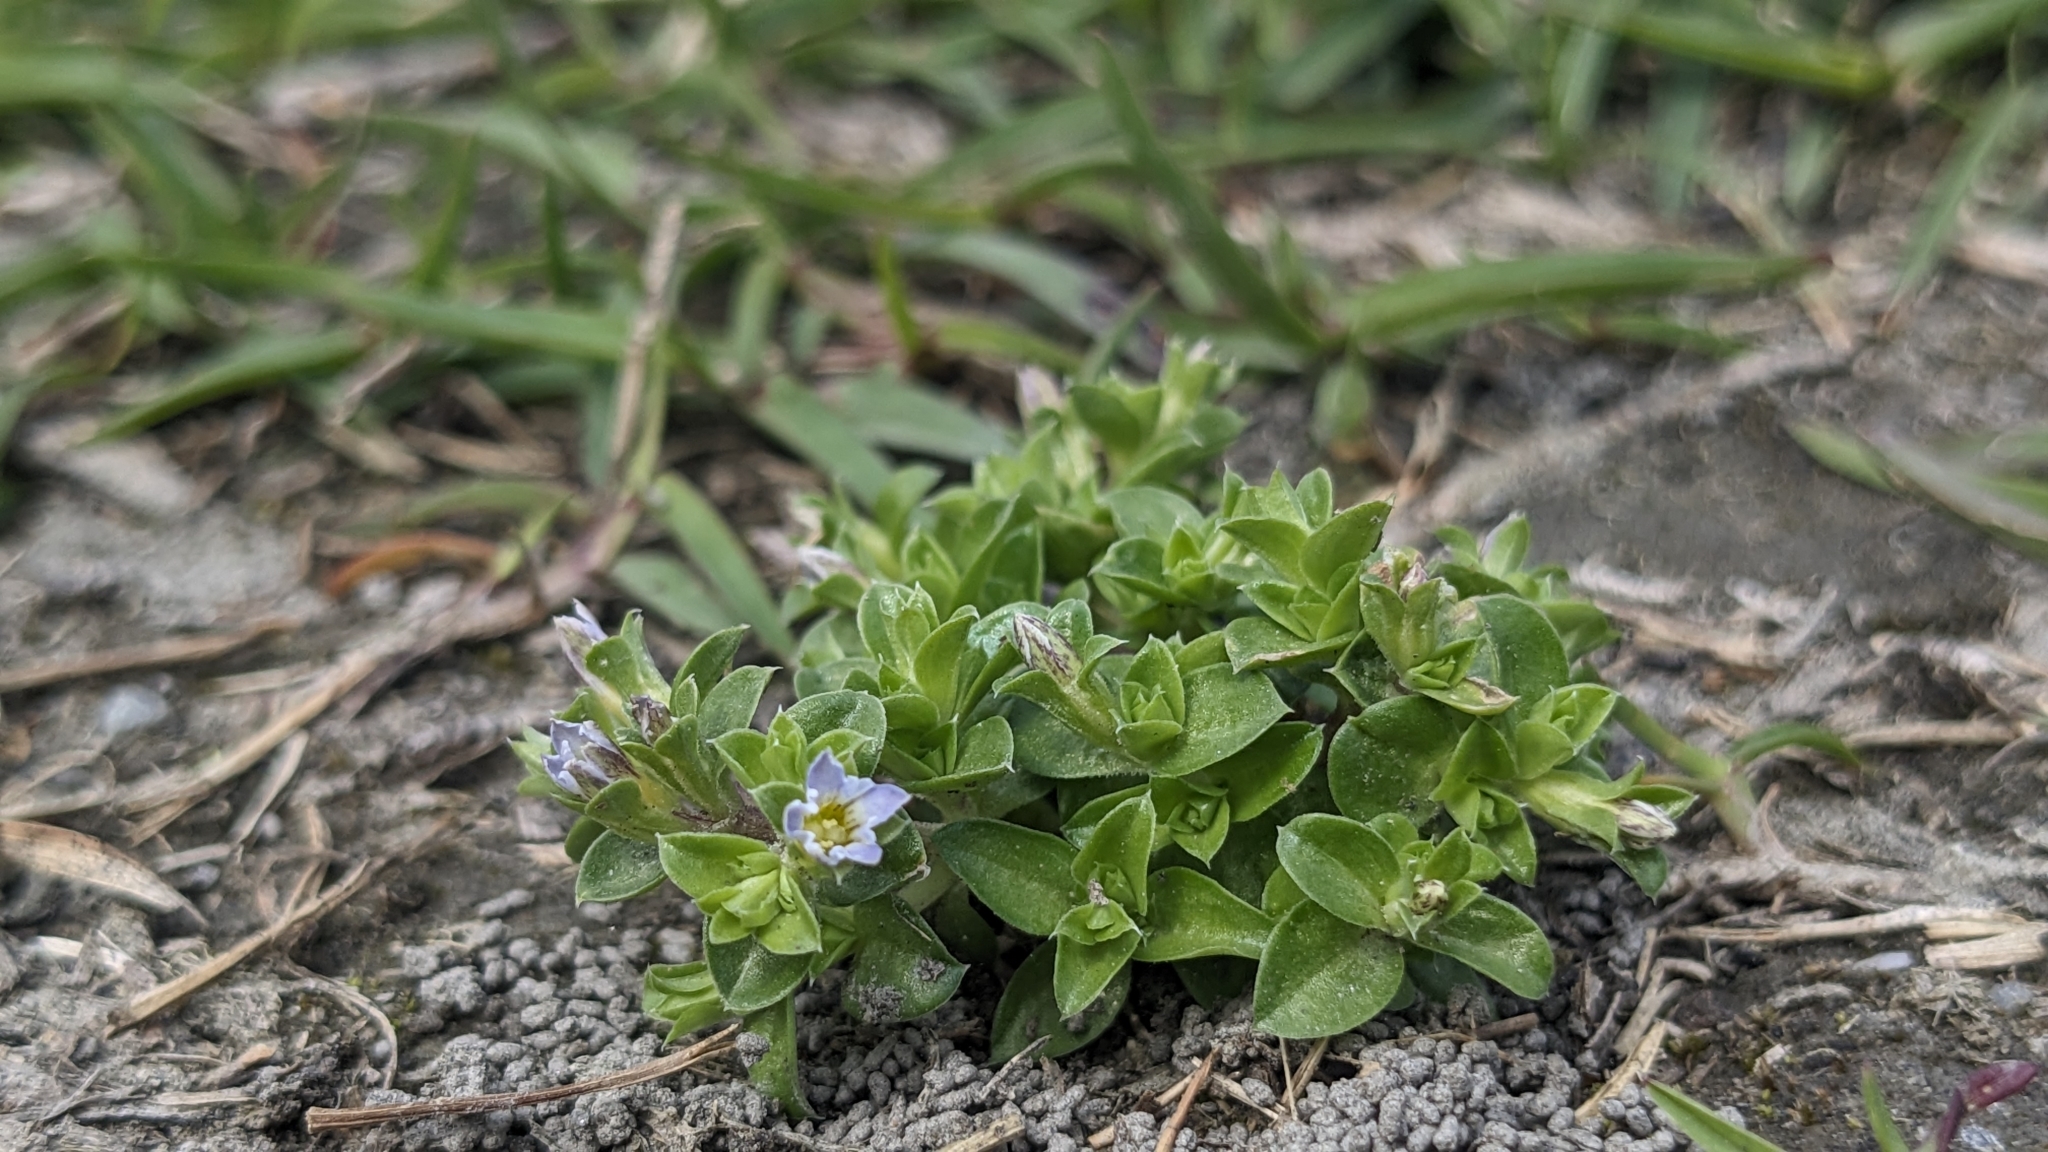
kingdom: Plantae
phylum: Tracheophyta
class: Magnoliopsida
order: Gentianales
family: Gentianaceae
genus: Gentiana
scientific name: Gentiana yokusai
